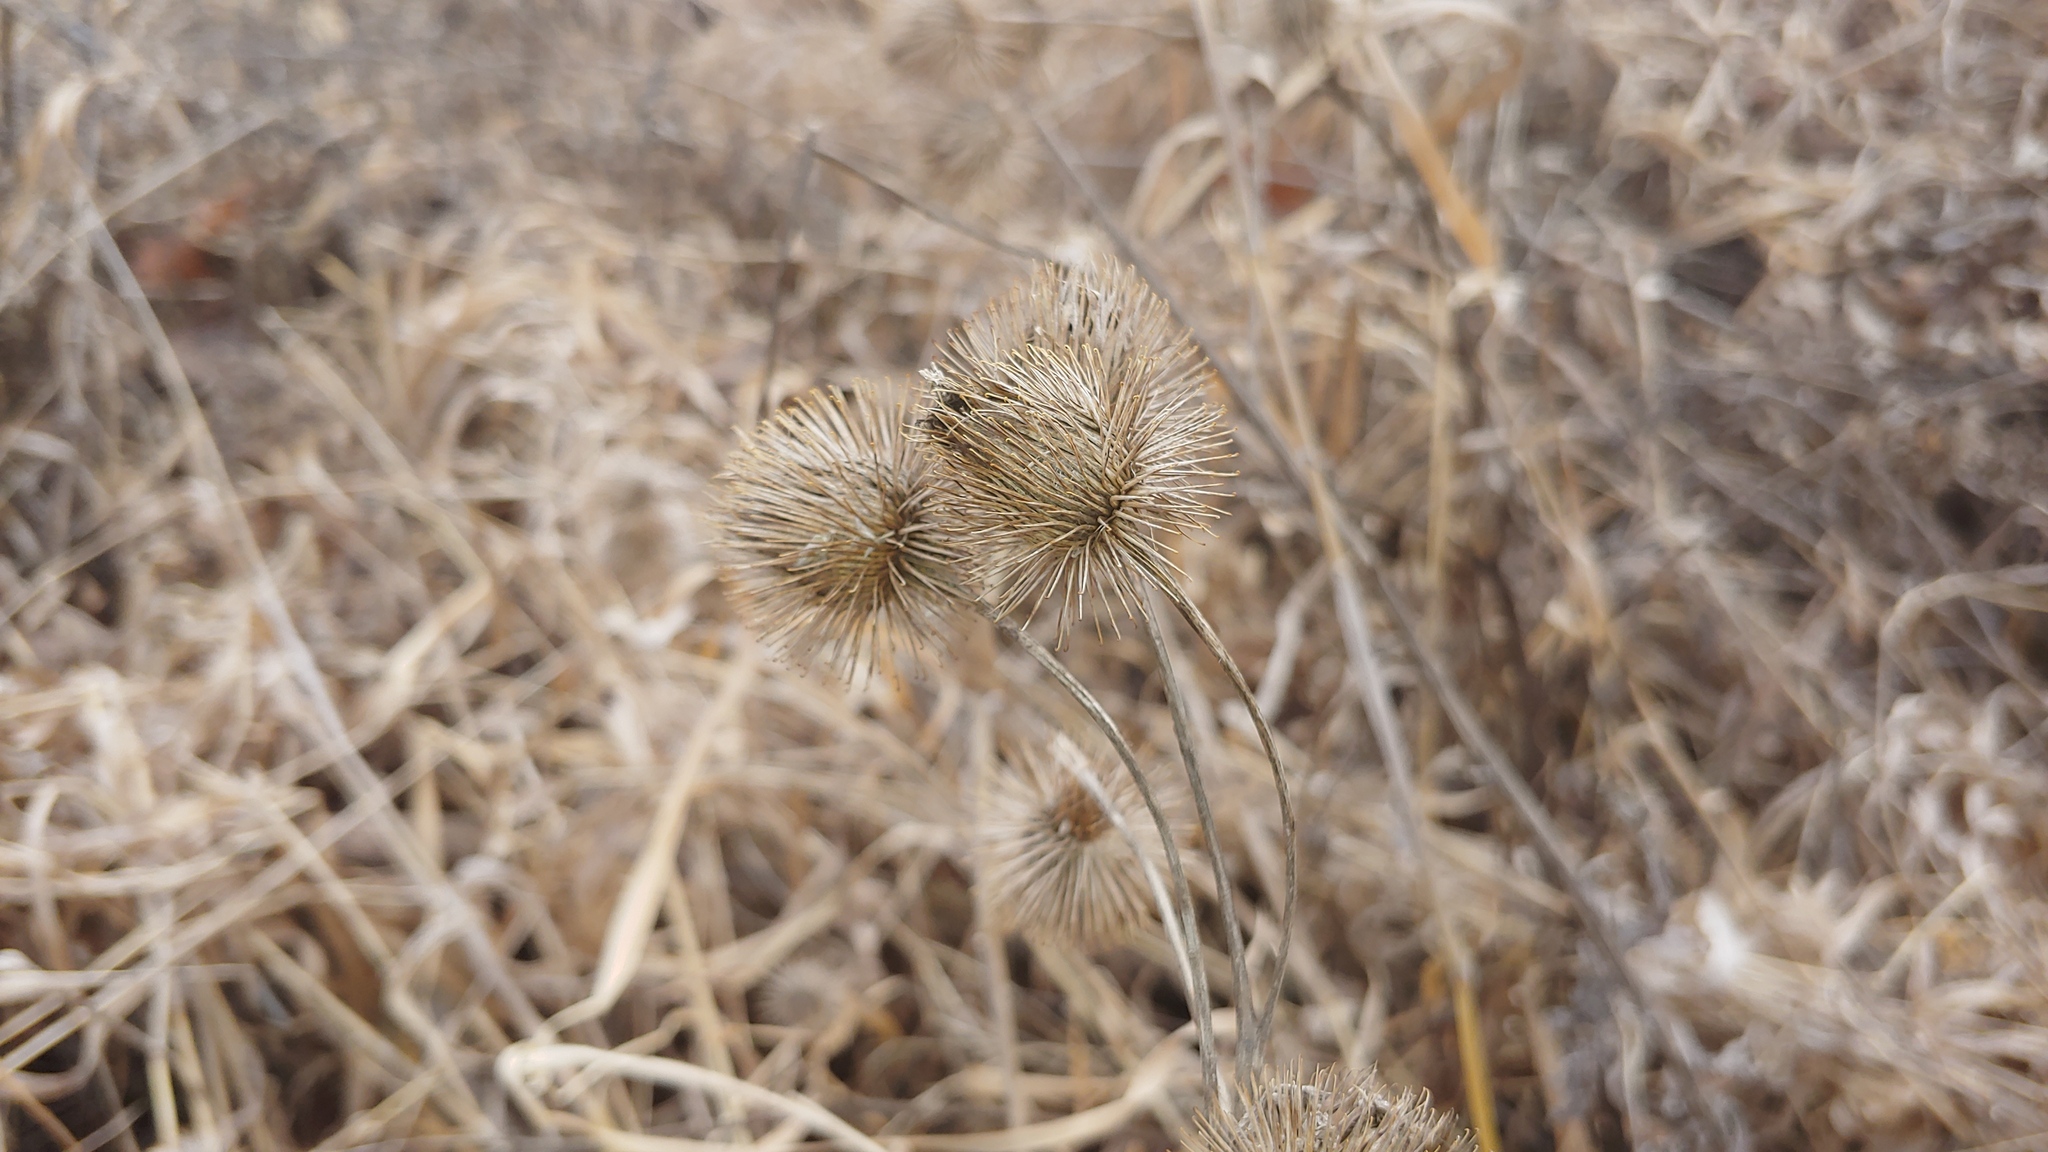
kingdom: Plantae
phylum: Tracheophyta
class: Magnoliopsida
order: Asterales
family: Asteraceae
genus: Arctium
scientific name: Arctium lappa
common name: Greater burdock
